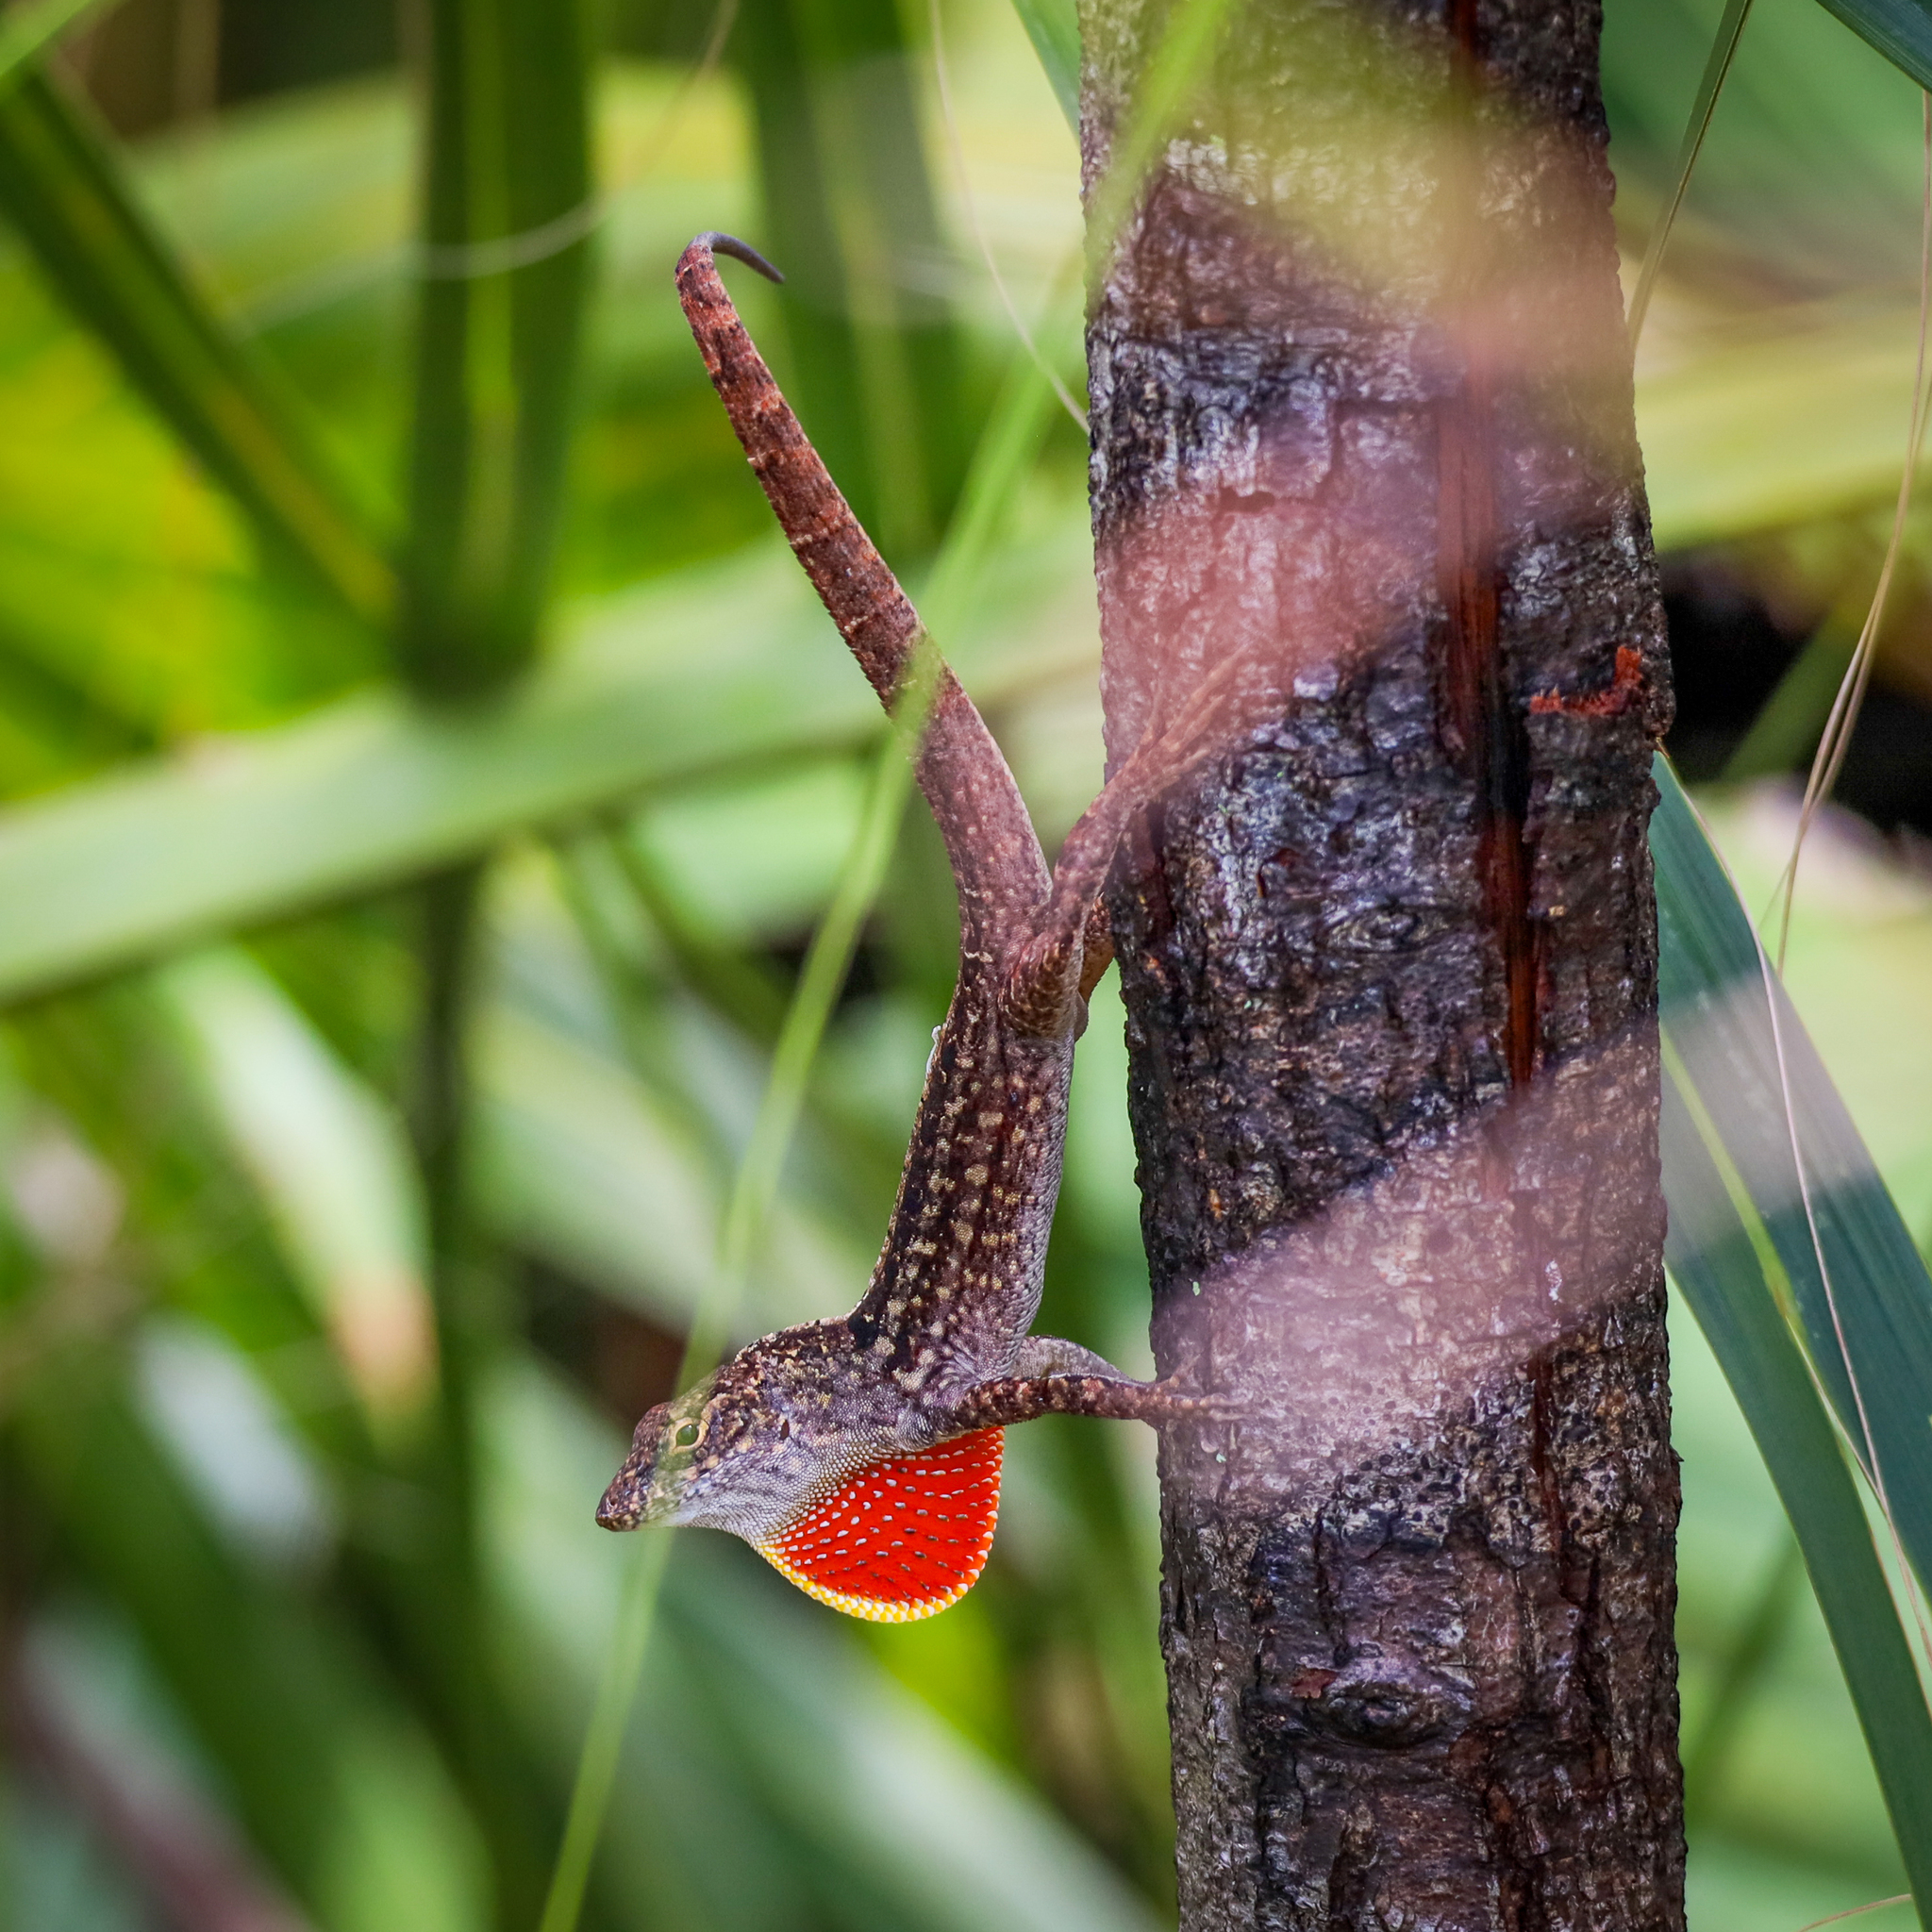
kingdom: Animalia
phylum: Chordata
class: Squamata
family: Dactyloidae
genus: Anolis
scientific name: Anolis sagrei
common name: Brown anole
